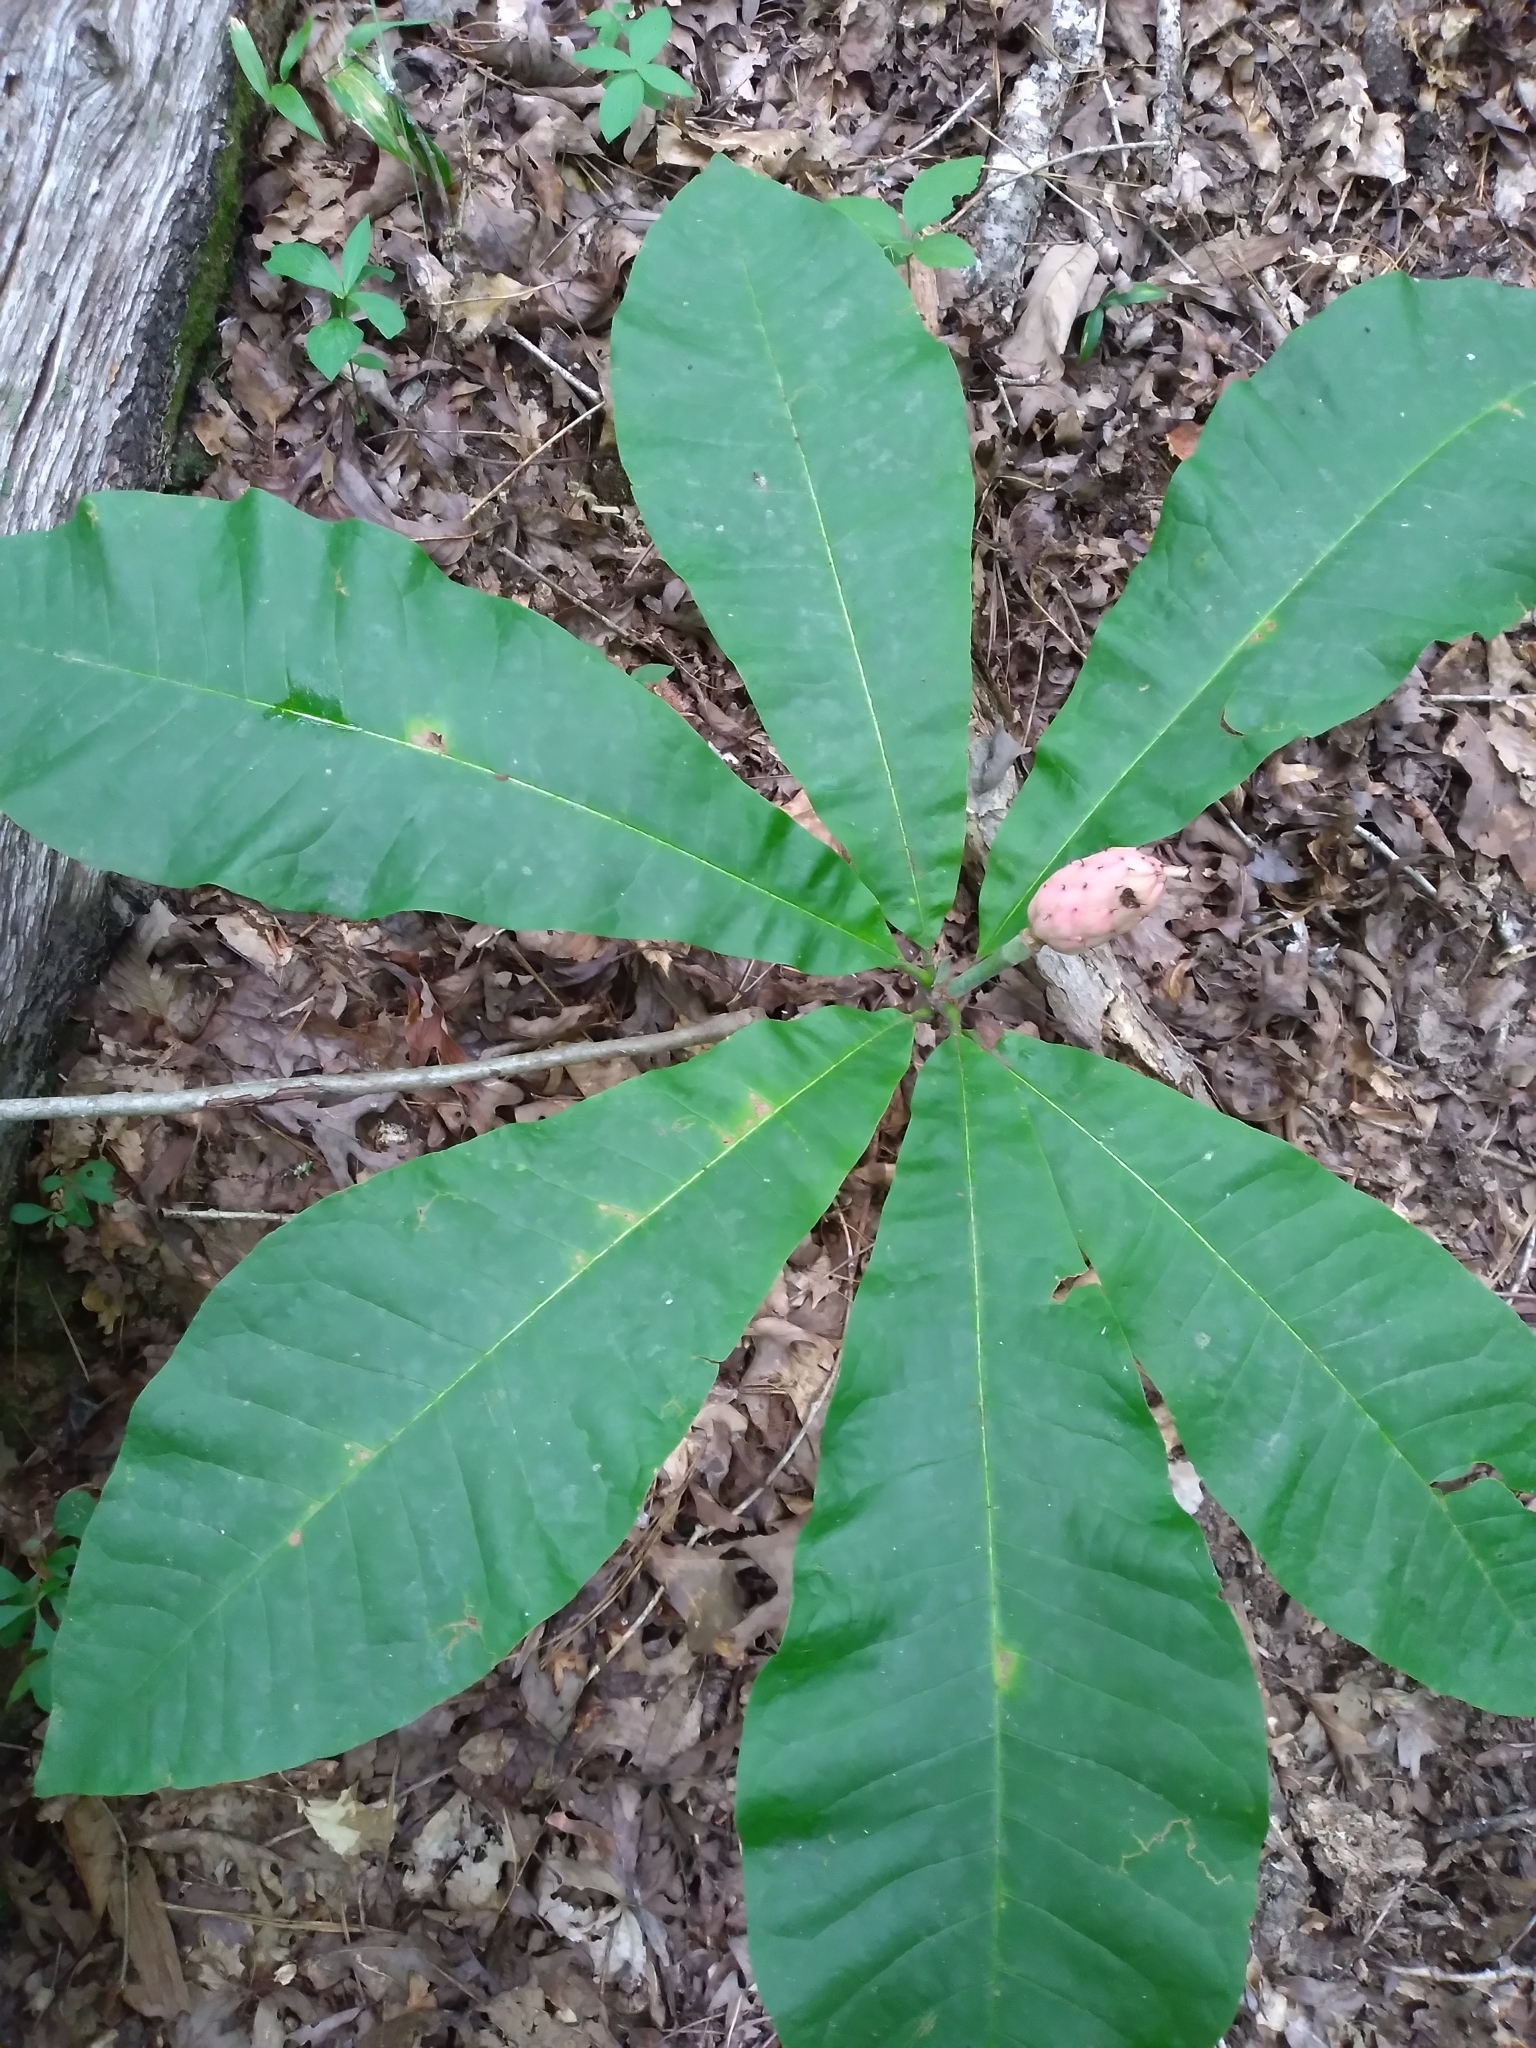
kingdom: Plantae
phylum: Tracheophyta
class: Magnoliopsida
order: Magnoliales
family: Magnoliaceae
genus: Magnolia
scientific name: Magnolia tripetala
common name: Umbrella magnolia
